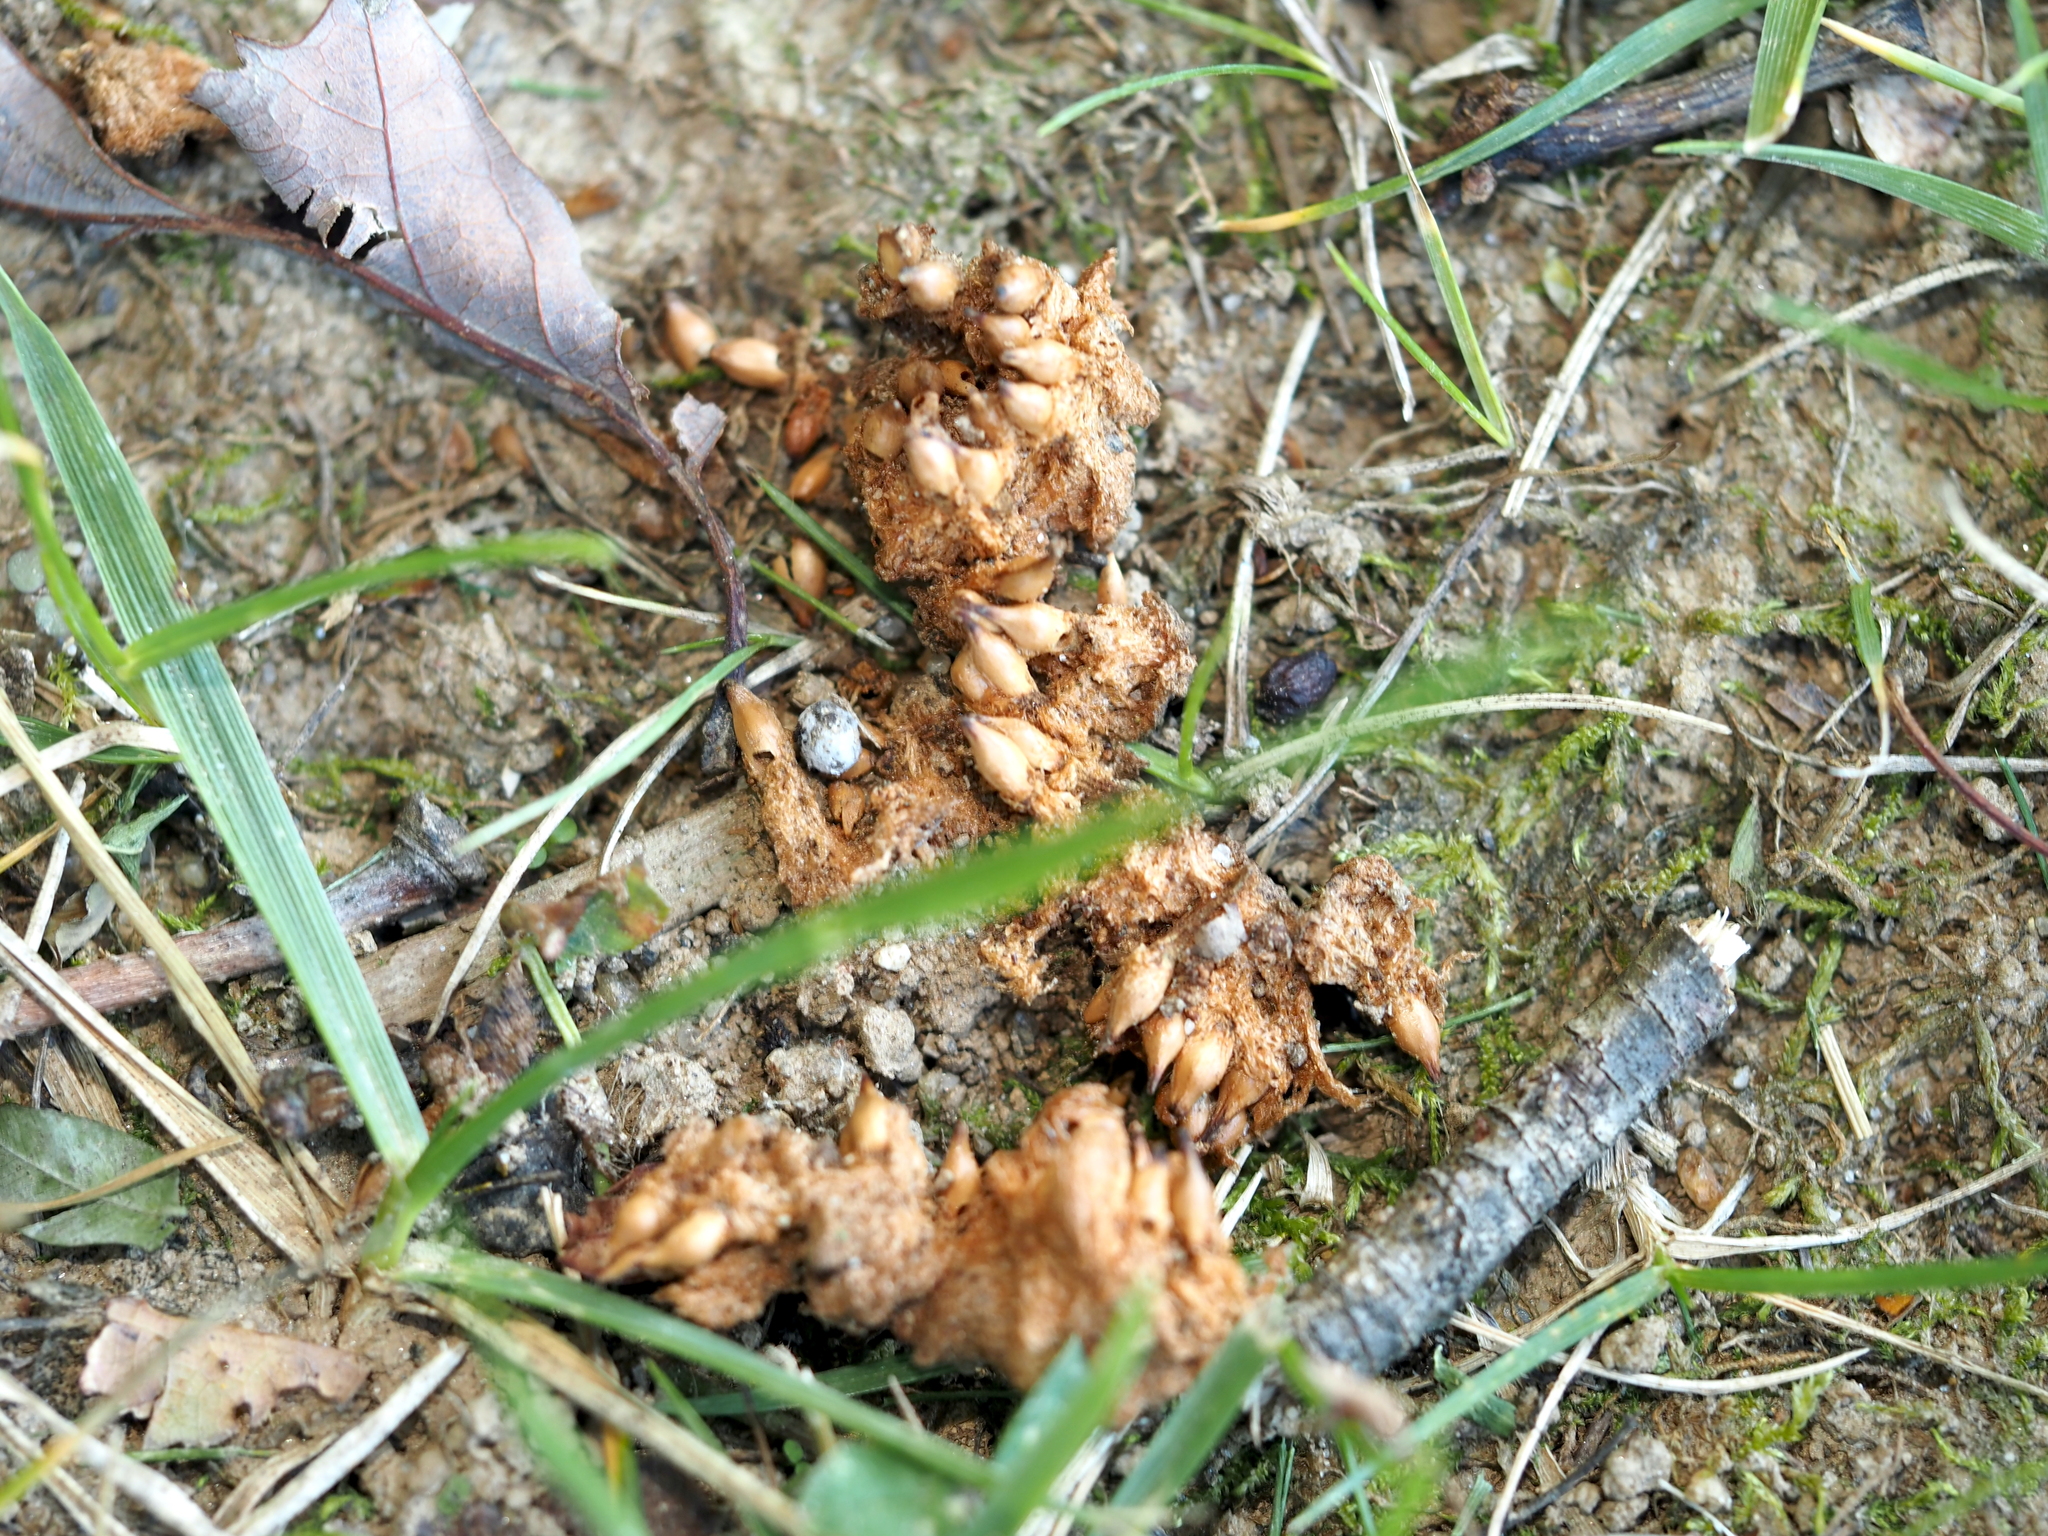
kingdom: Animalia
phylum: Arthropoda
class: Insecta
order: Hymenoptera
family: Cynipidae
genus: Callirhytis
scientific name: Callirhytis
